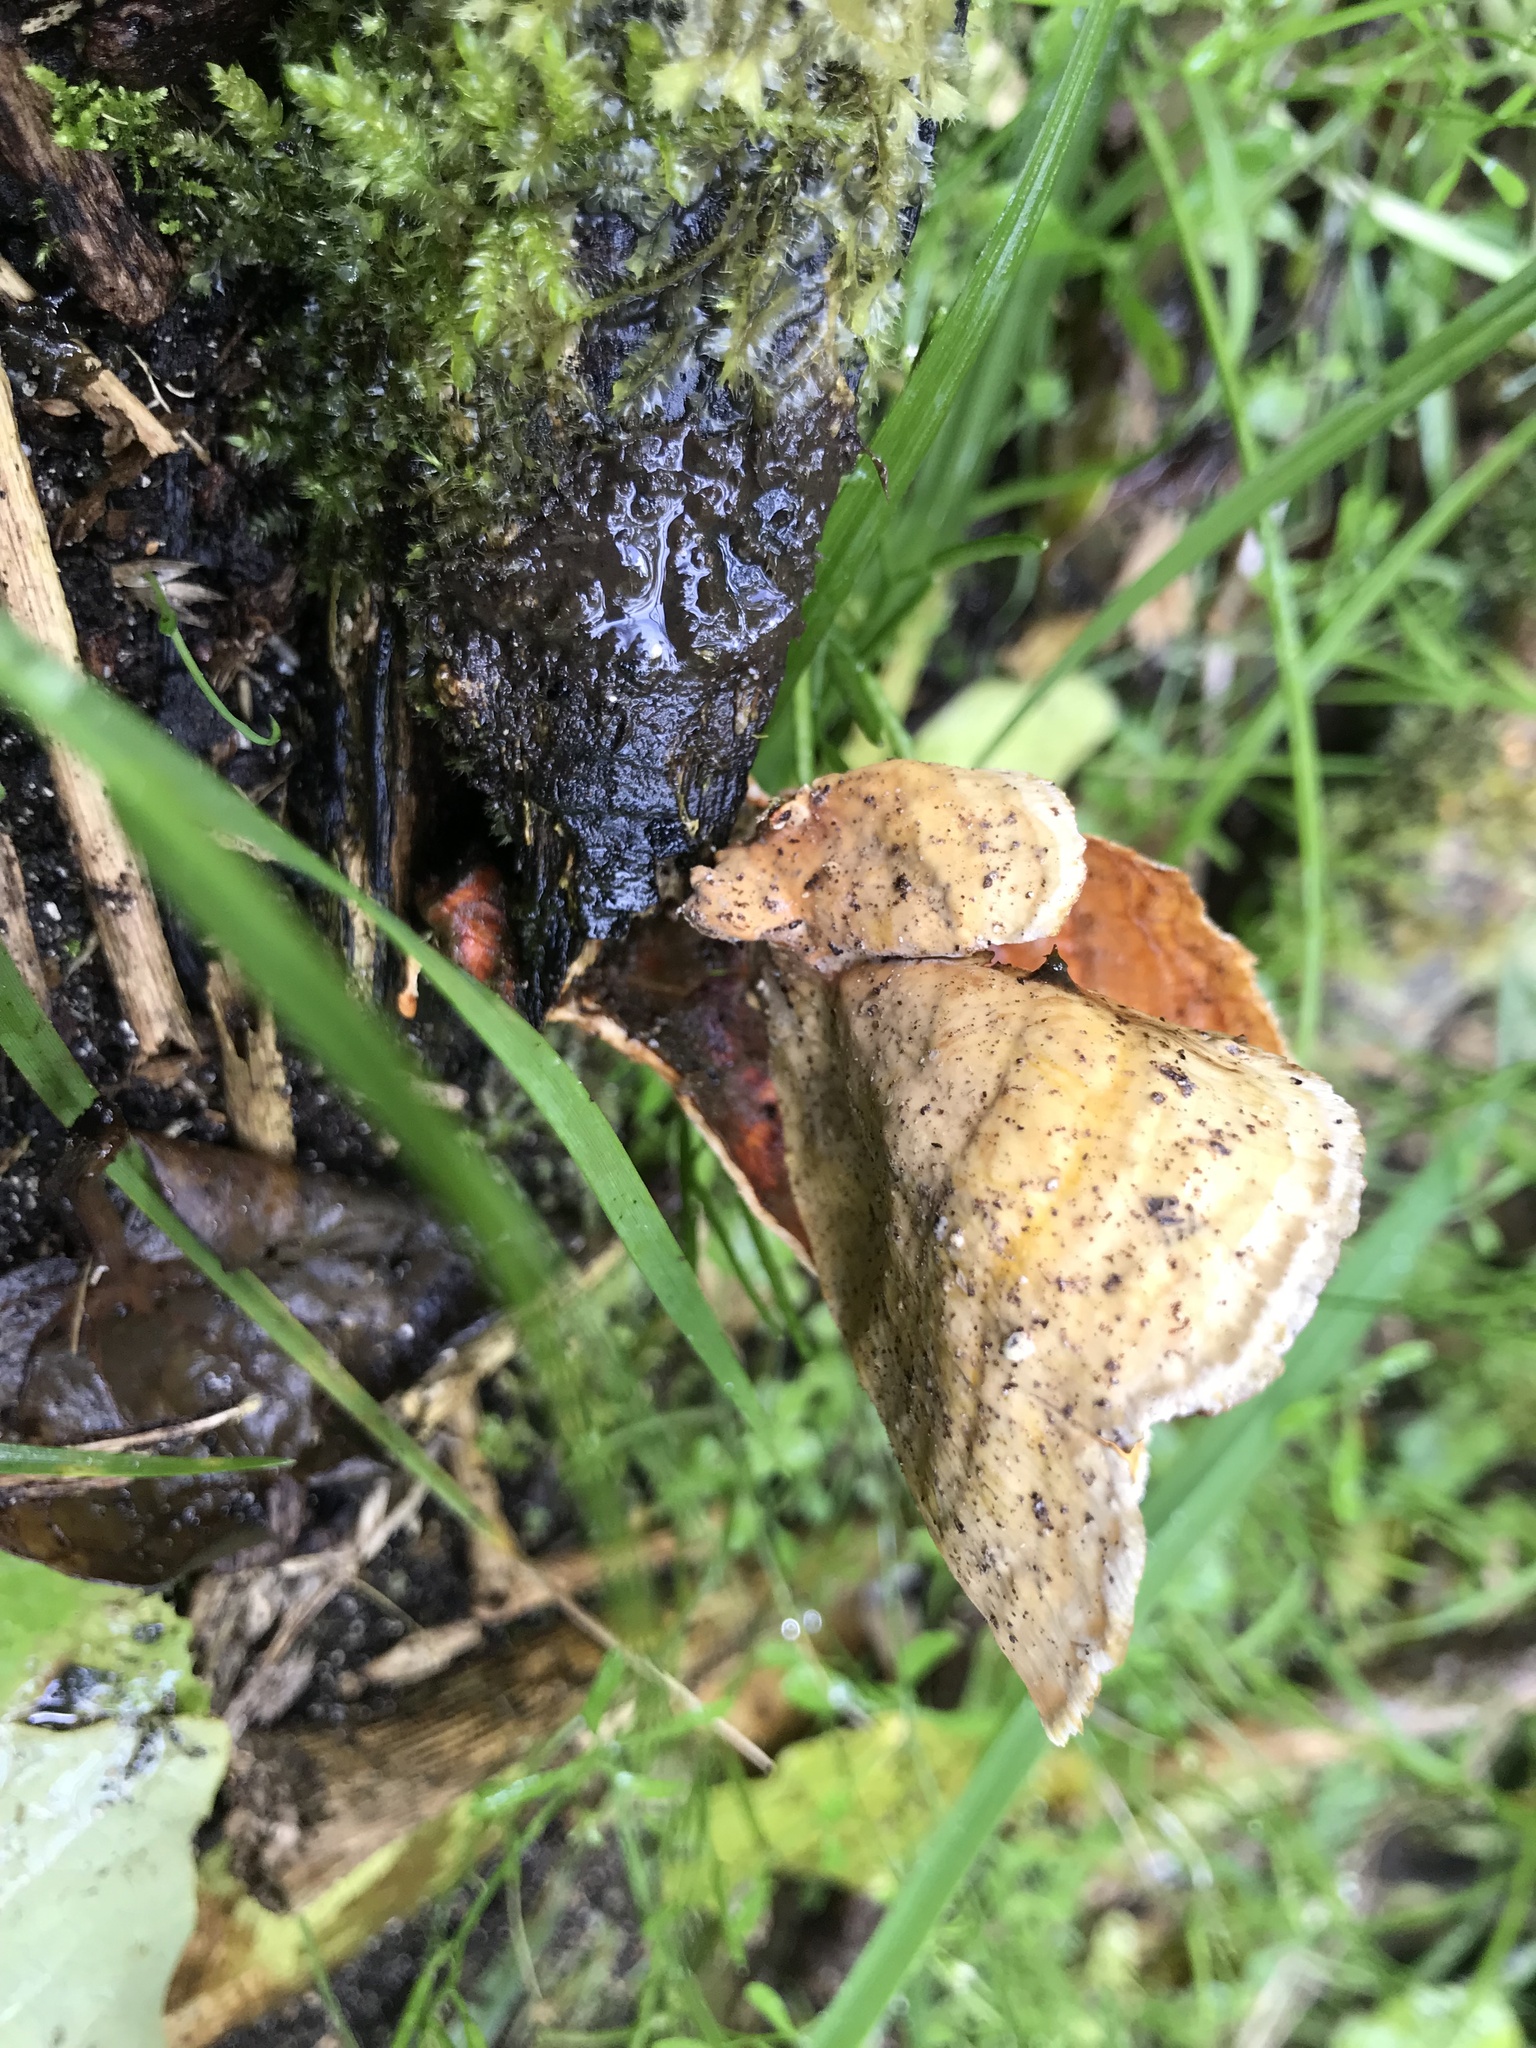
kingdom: Fungi
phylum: Basidiomycota
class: Agaricomycetes
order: Russulales
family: Stereaceae
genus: Stereum
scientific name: Stereum versicolor
